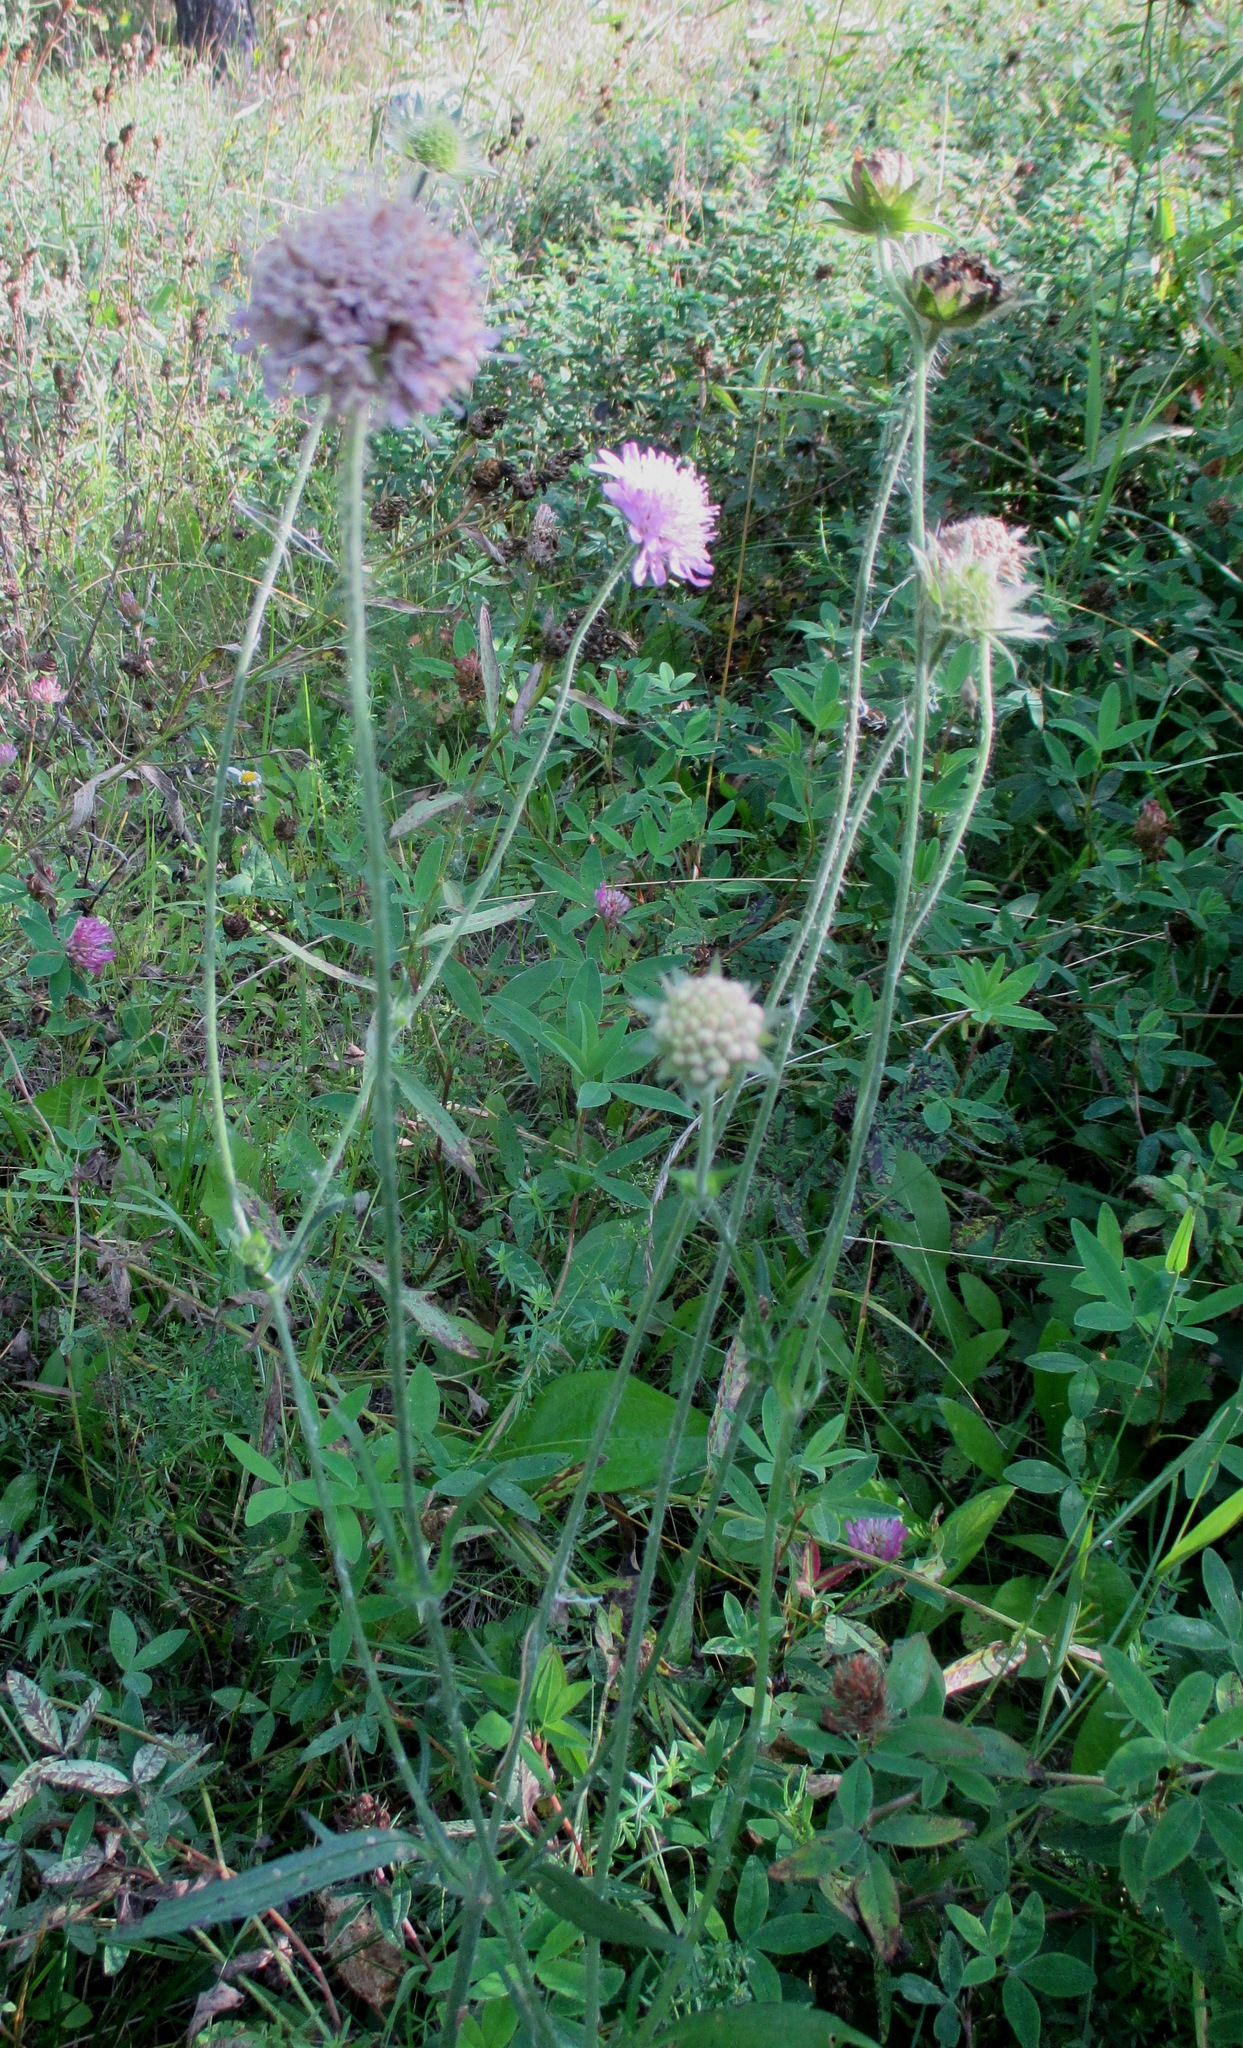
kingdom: Plantae
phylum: Tracheophyta
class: Magnoliopsida
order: Dipsacales
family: Caprifoliaceae
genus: Knautia
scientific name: Knautia arvensis
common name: Field scabiosa
